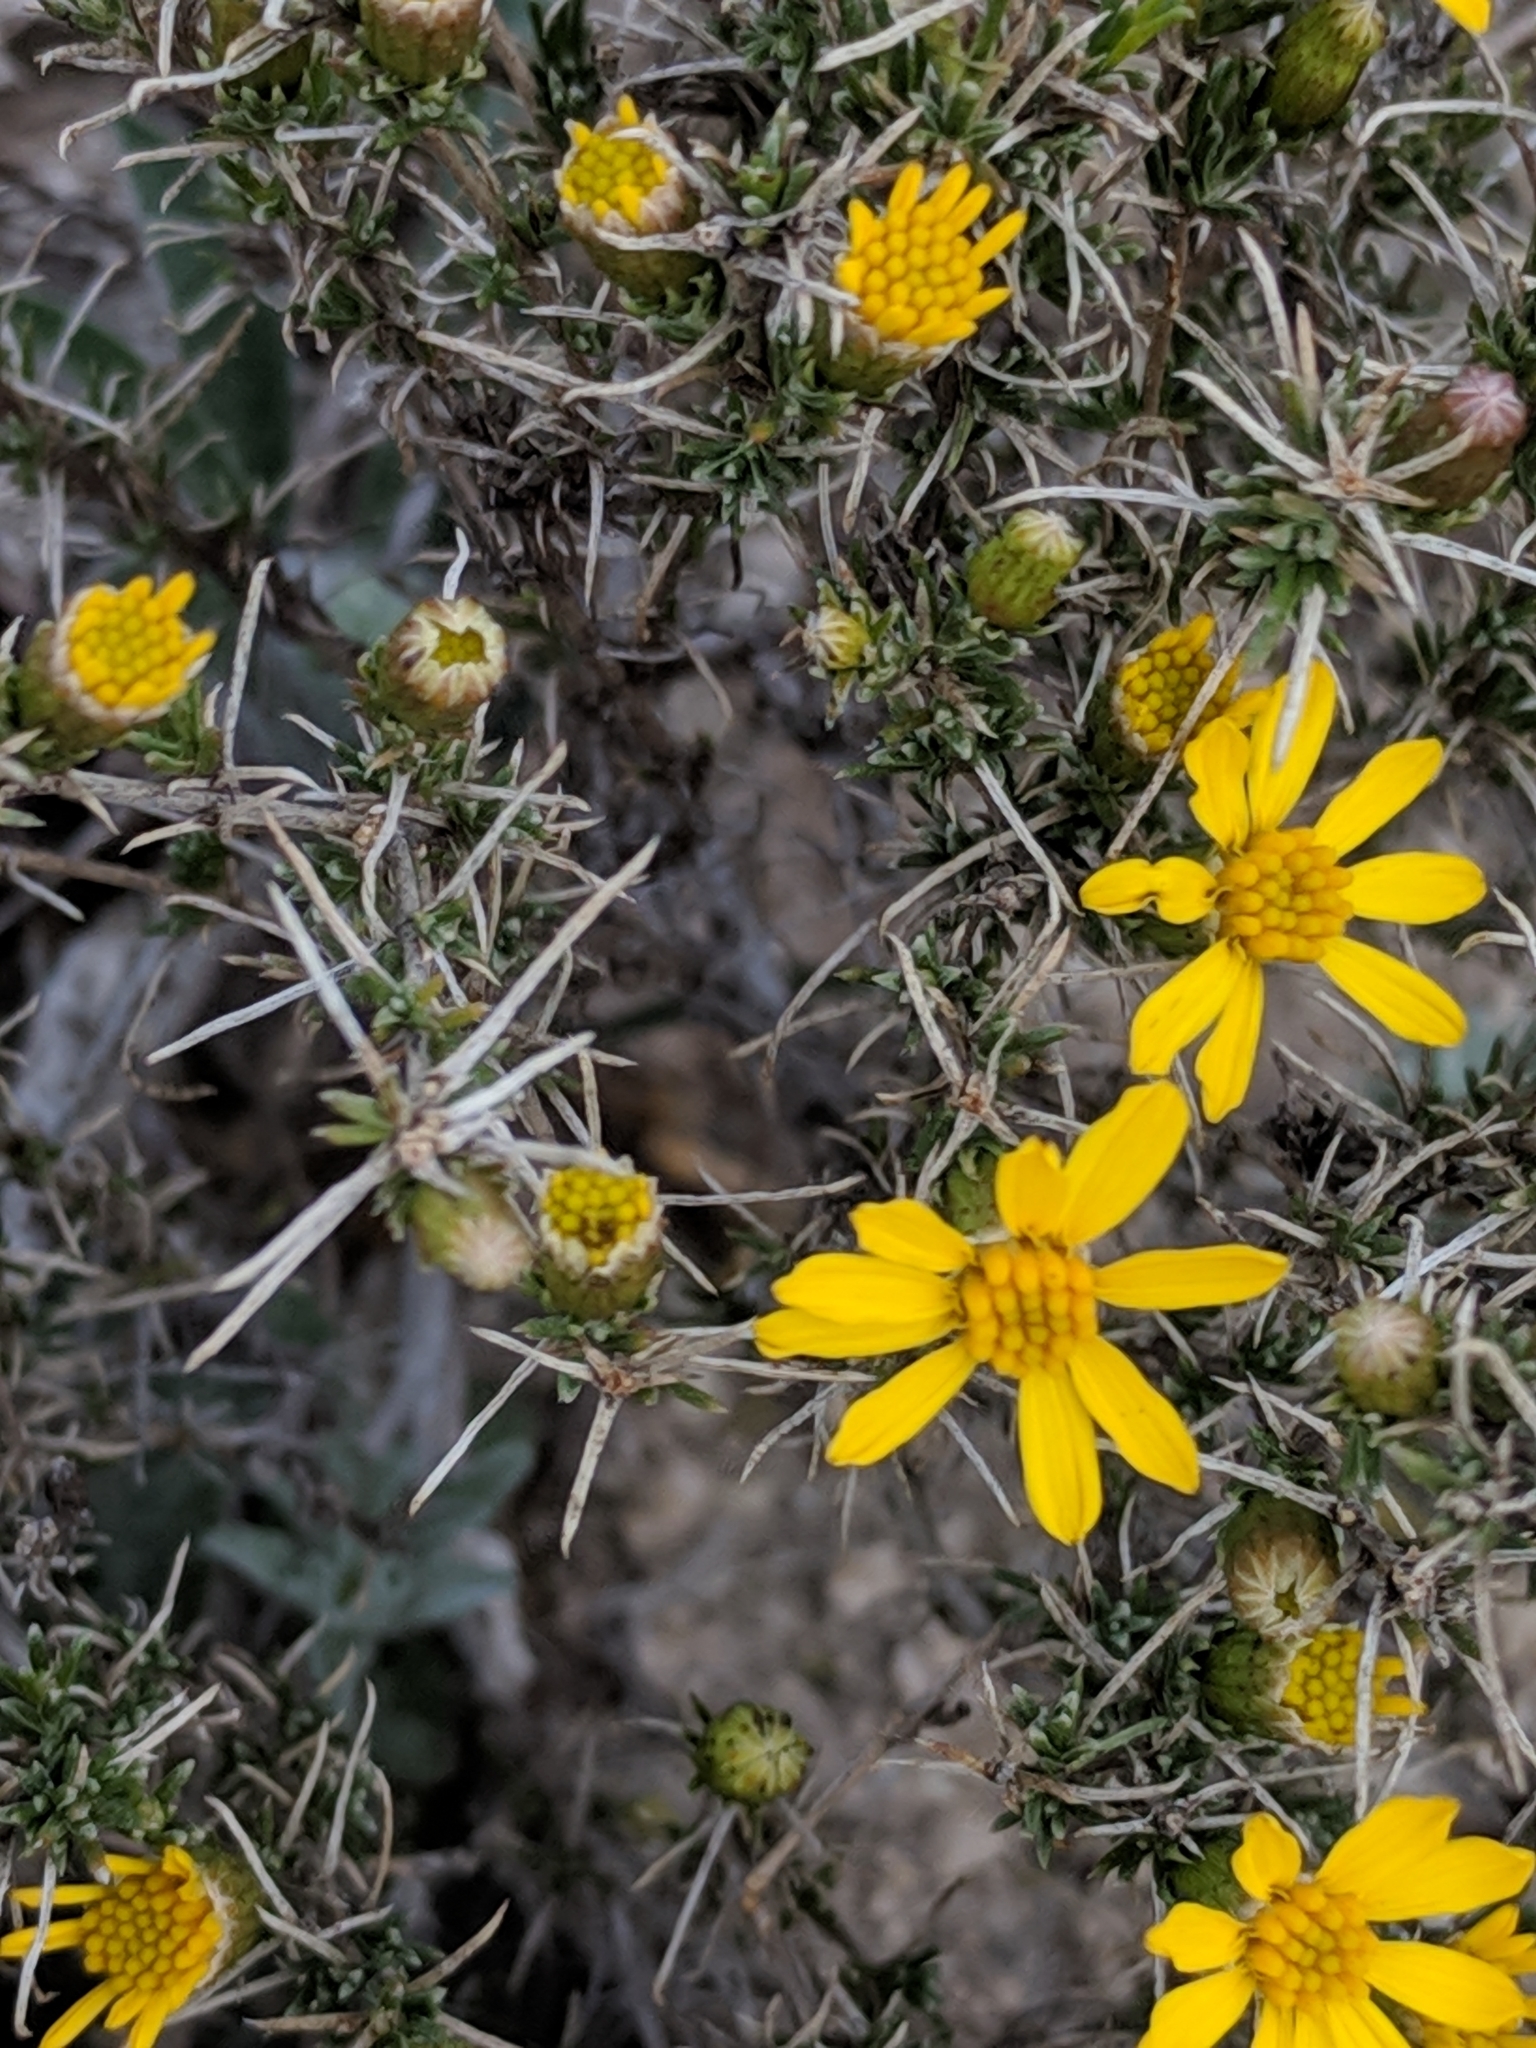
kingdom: Plantae
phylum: Tracheophyta
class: Magnoliopsida
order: Asterales
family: Asteraceae
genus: Thymophylla
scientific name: Thymophylla acerosa
